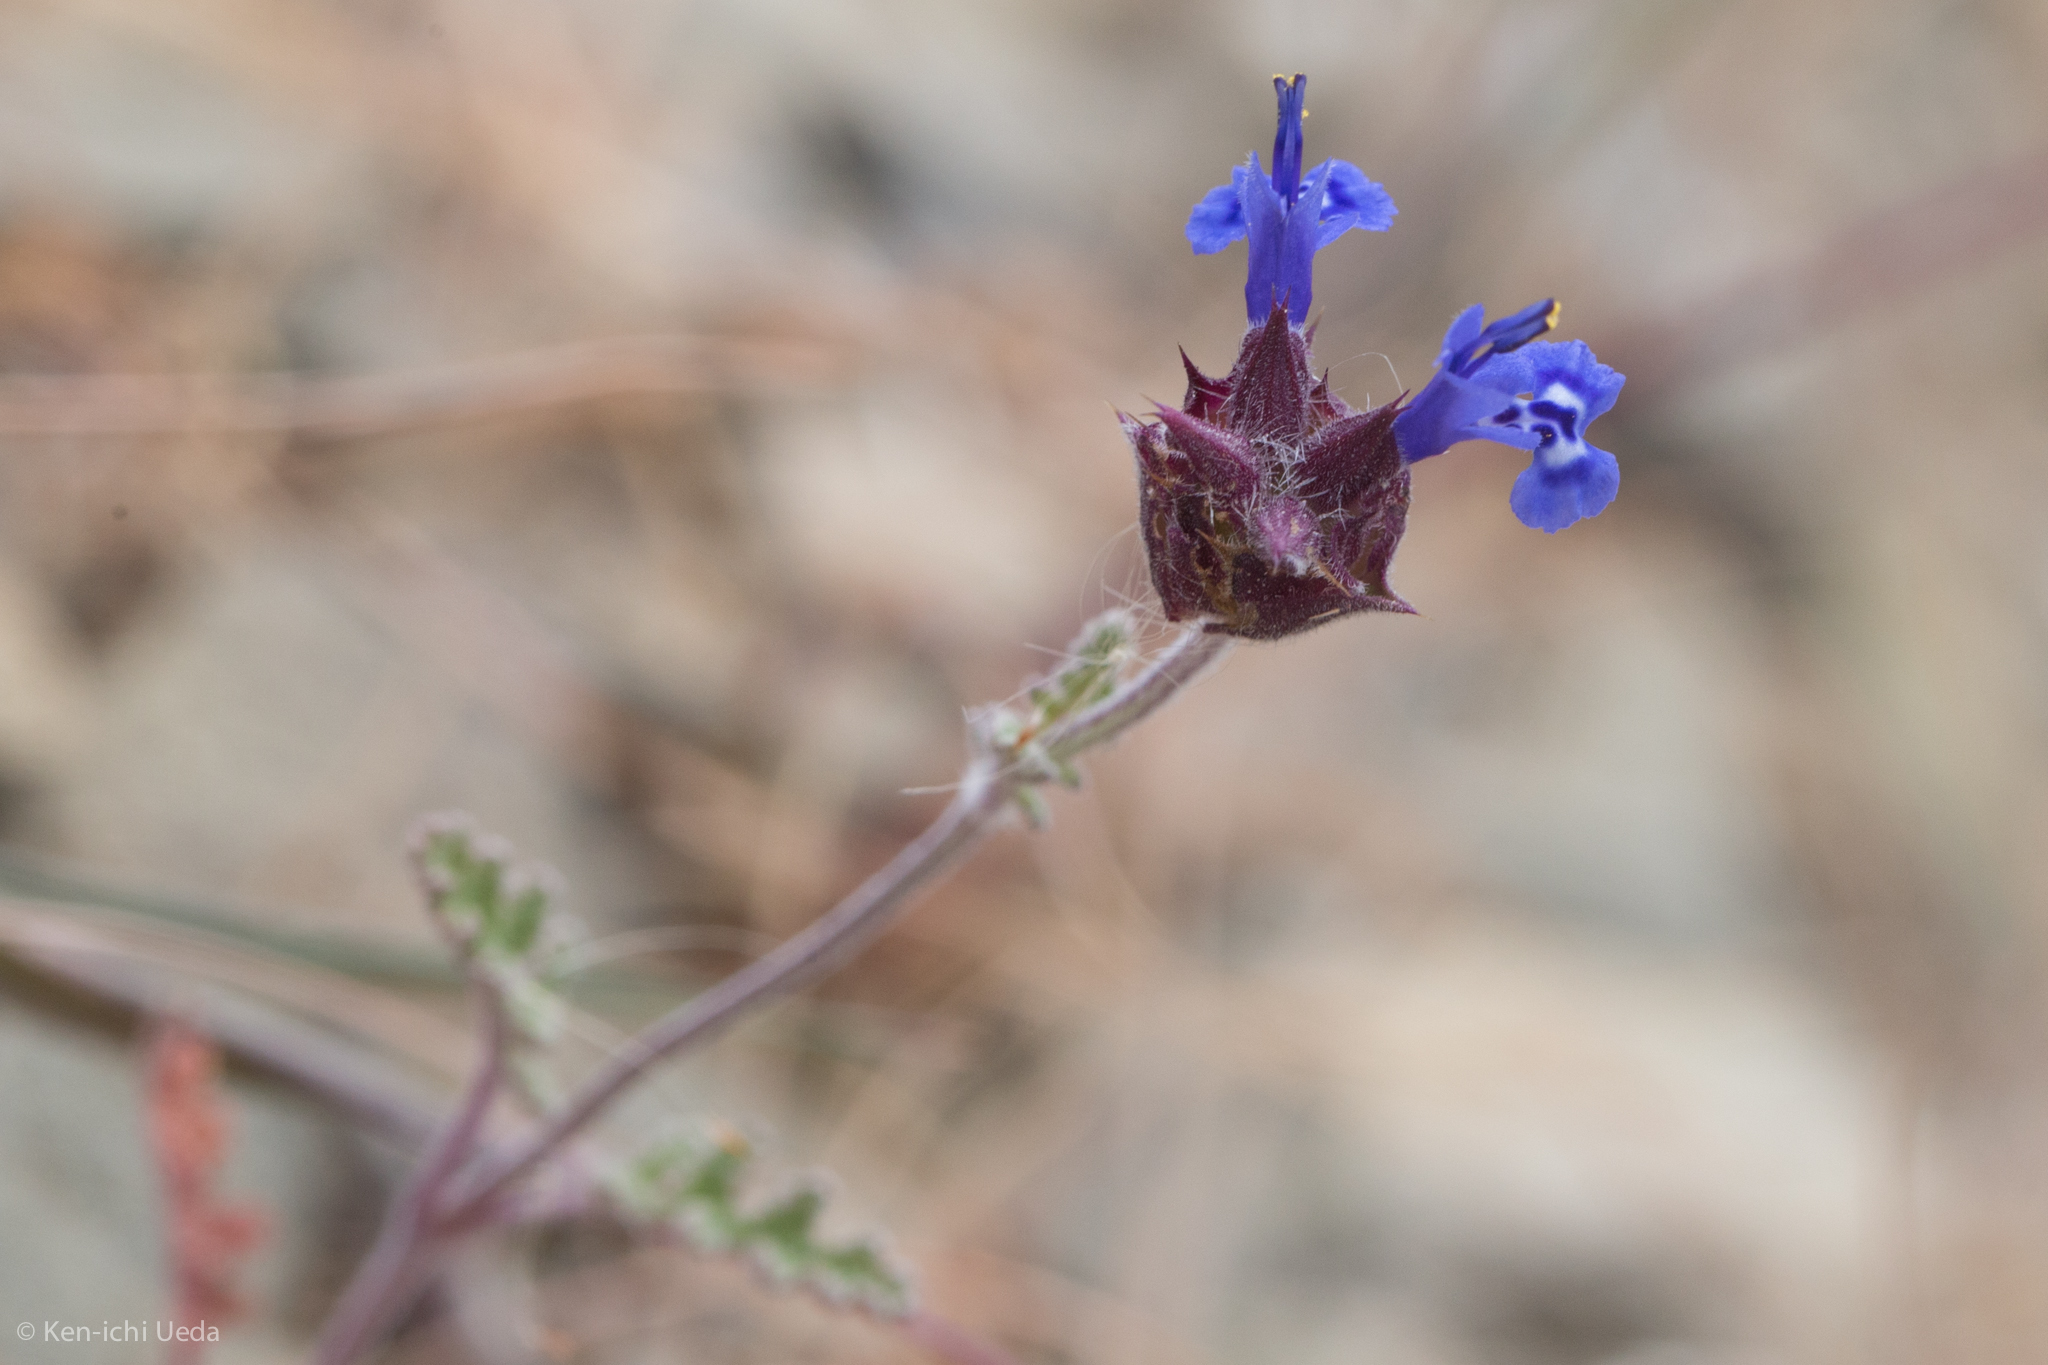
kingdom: Plantae
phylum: Tracheophyta
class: Magnoliopsida
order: Lamiales
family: Lamiaceae
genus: Salvia
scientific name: Salvia columbariae
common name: Chia
